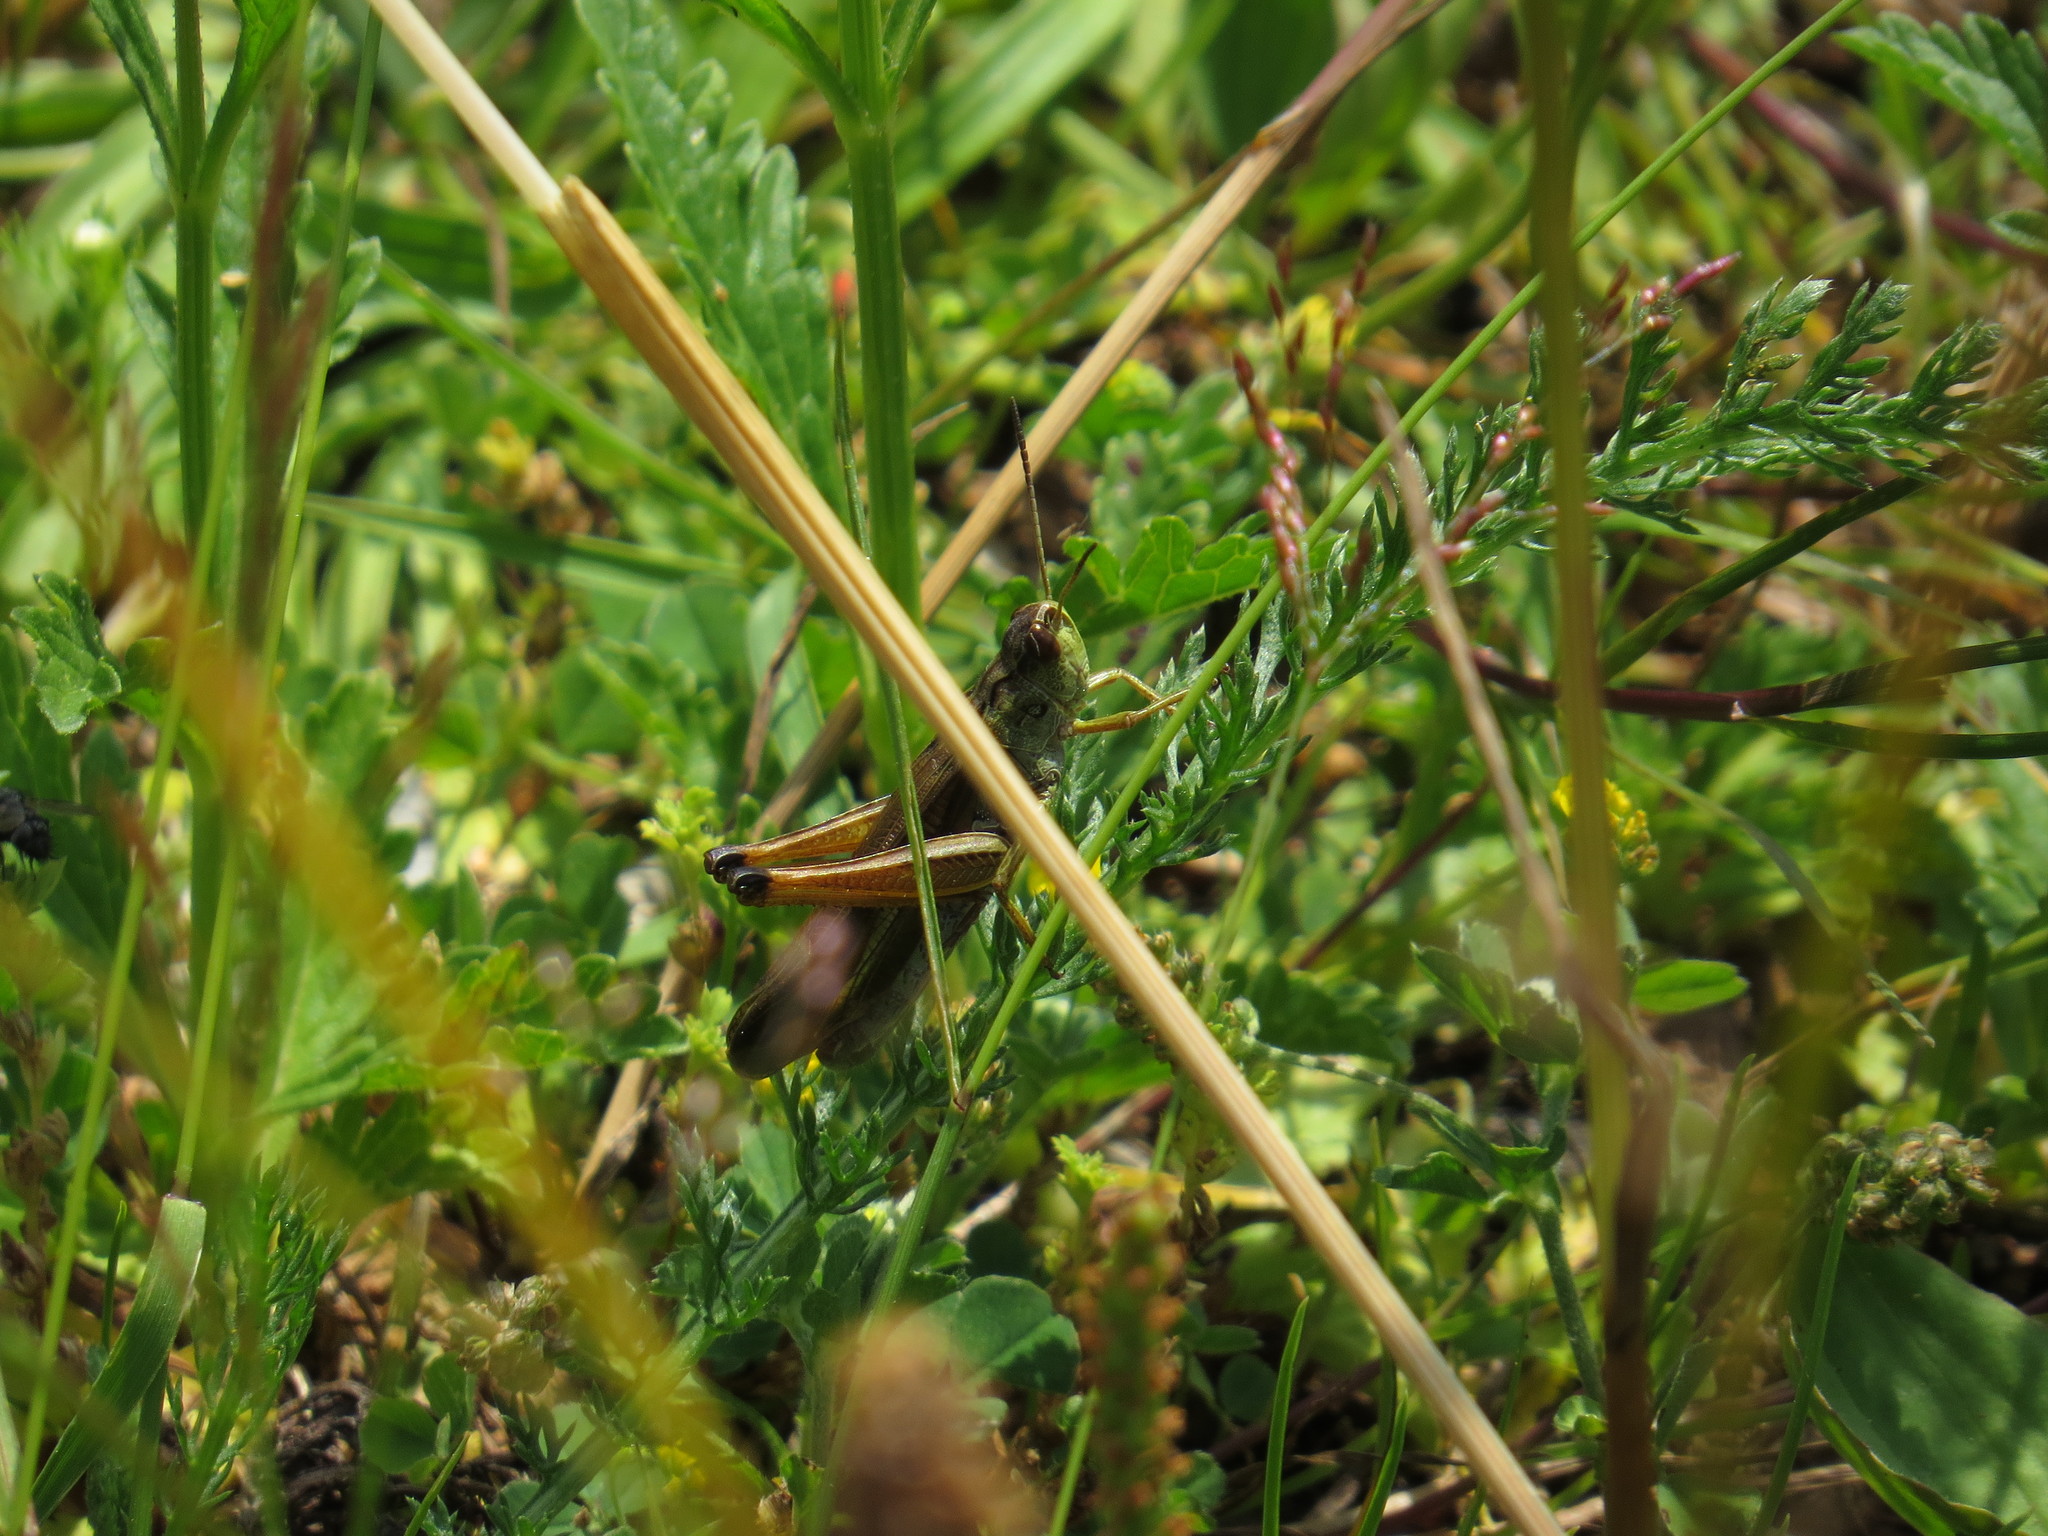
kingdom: Animalia
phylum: Arthropoda
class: Insecta
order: Orthoptera
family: Acrididae
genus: Stauroderus
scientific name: Stauroderus scalaris
